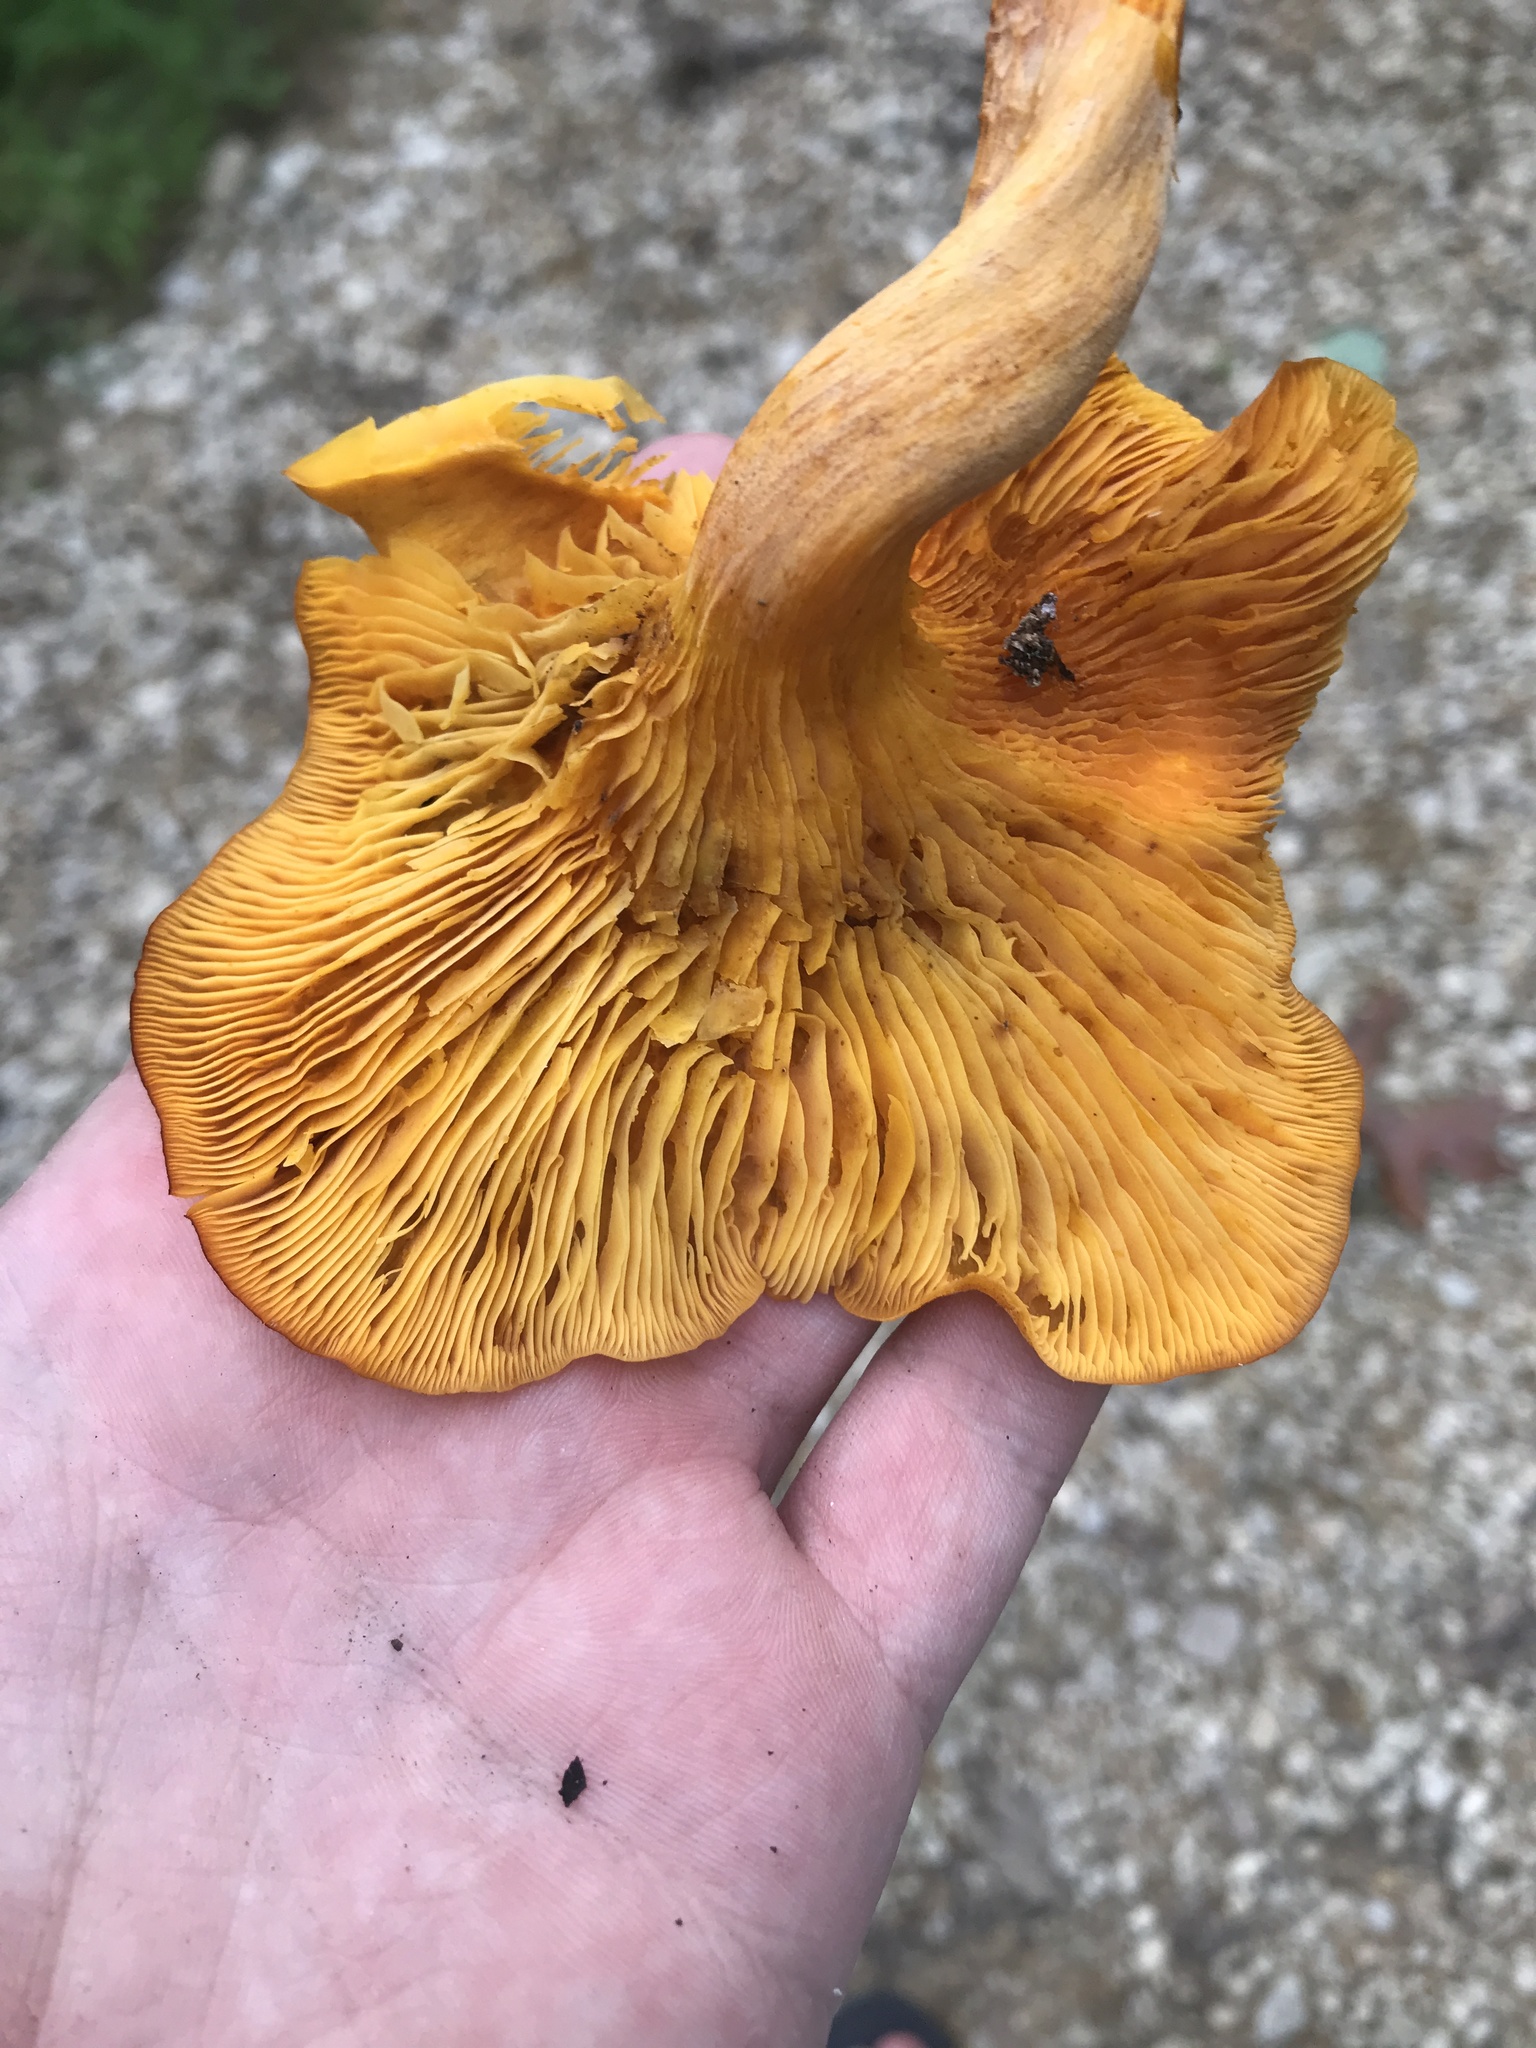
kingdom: Fungi
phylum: Basidiomycota
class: Agaricomycetes
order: Agaricales
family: Omphalotaceae
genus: Omphalotus
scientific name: Omphalotus illudens
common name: Jack o lantern
